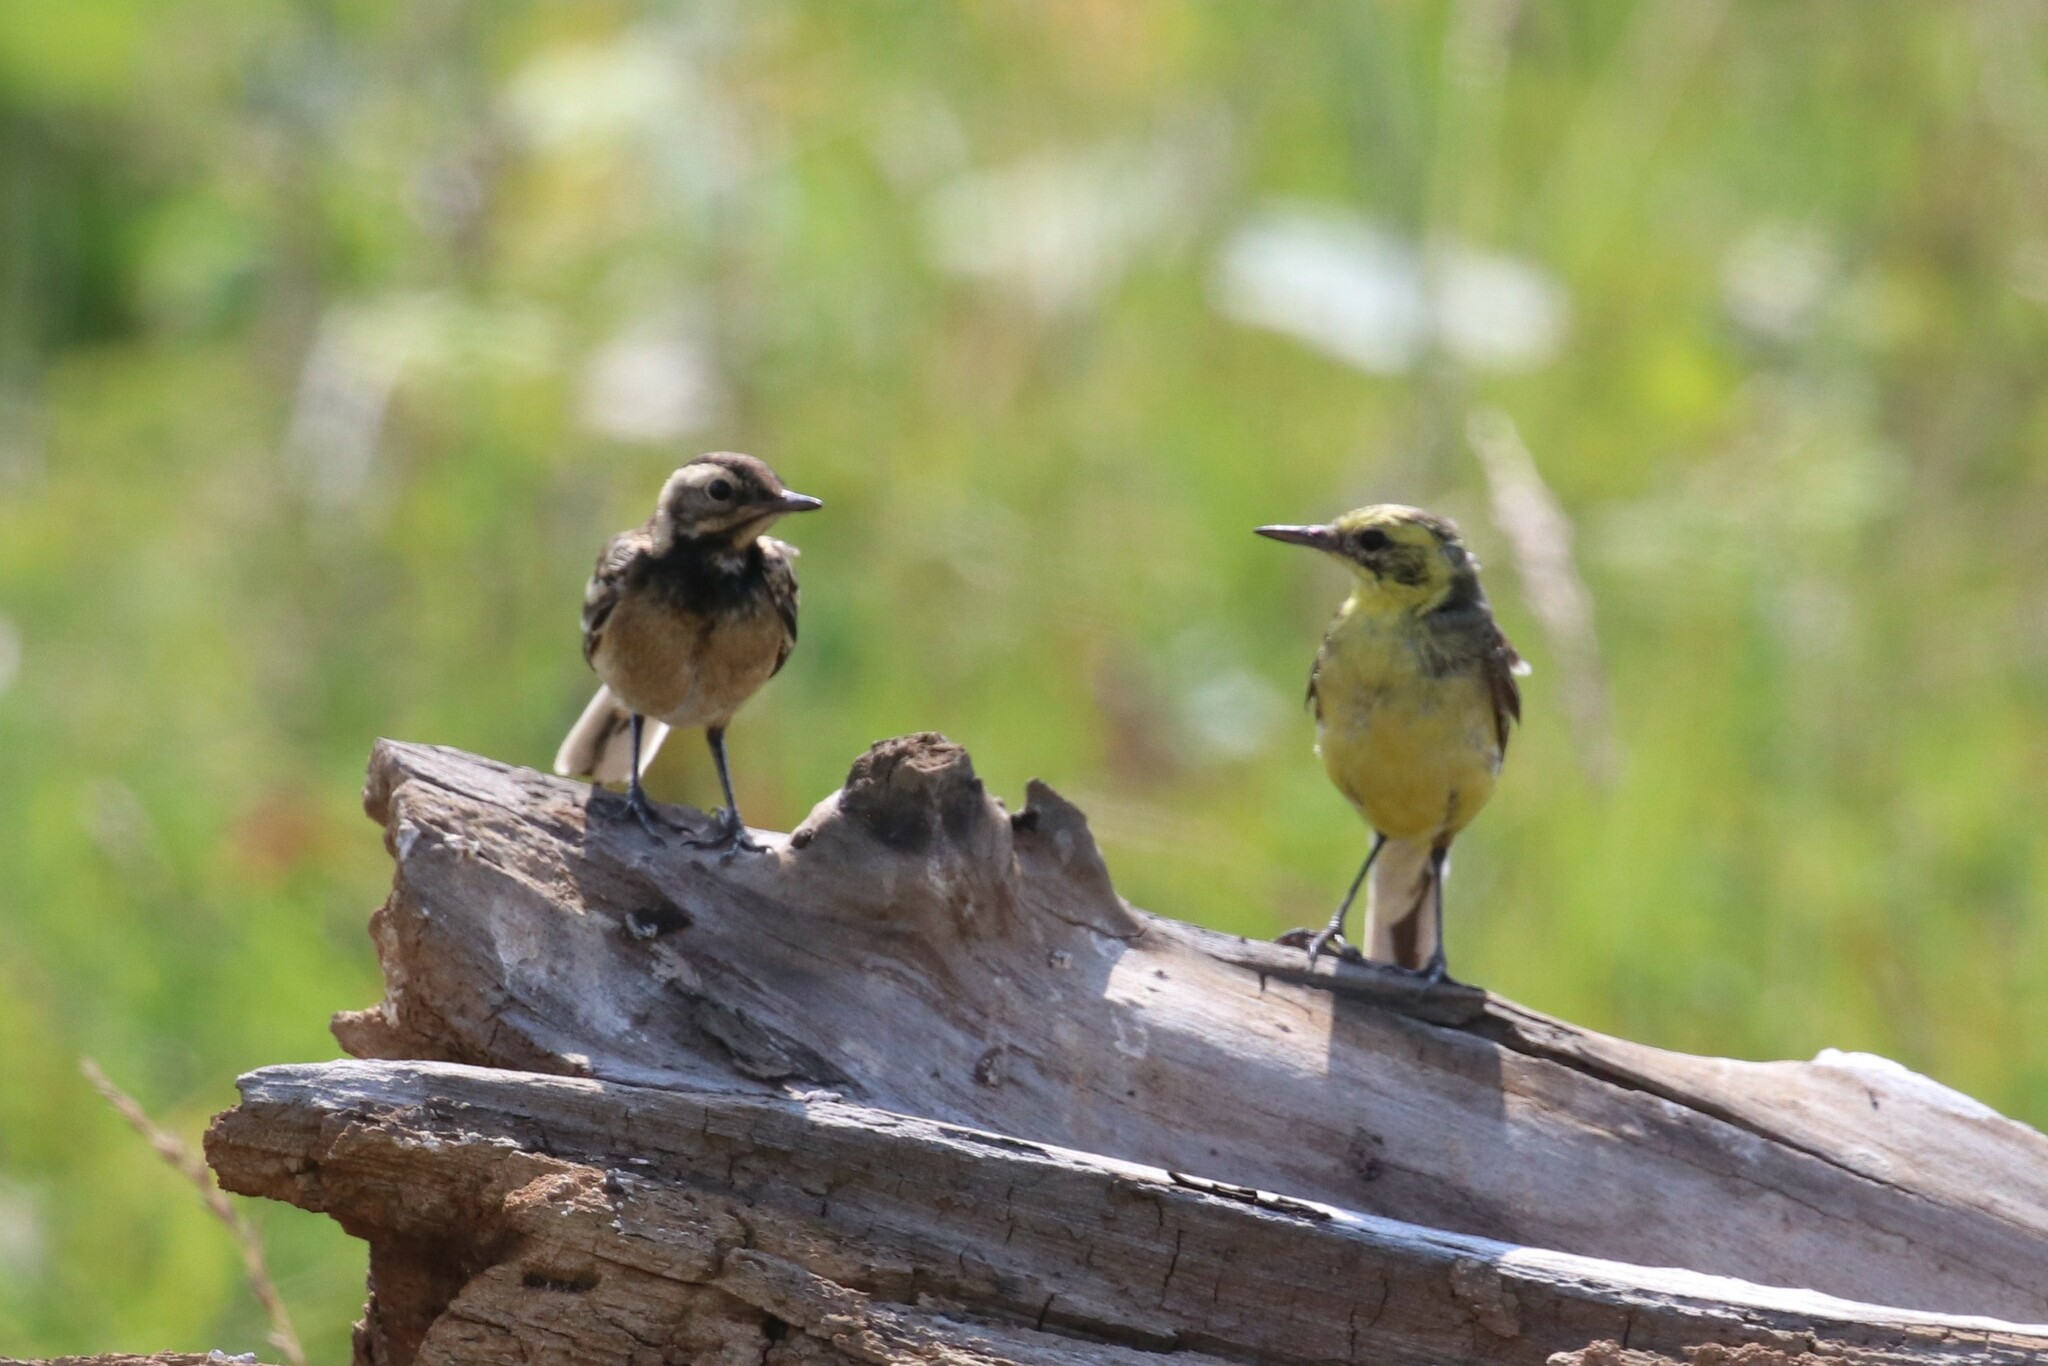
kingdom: Animalia
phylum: Chordata
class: Aves
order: Passeriformes
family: Motacillidae
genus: Motacilla
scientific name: Motacilla citreola
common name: Citrine wagtail
